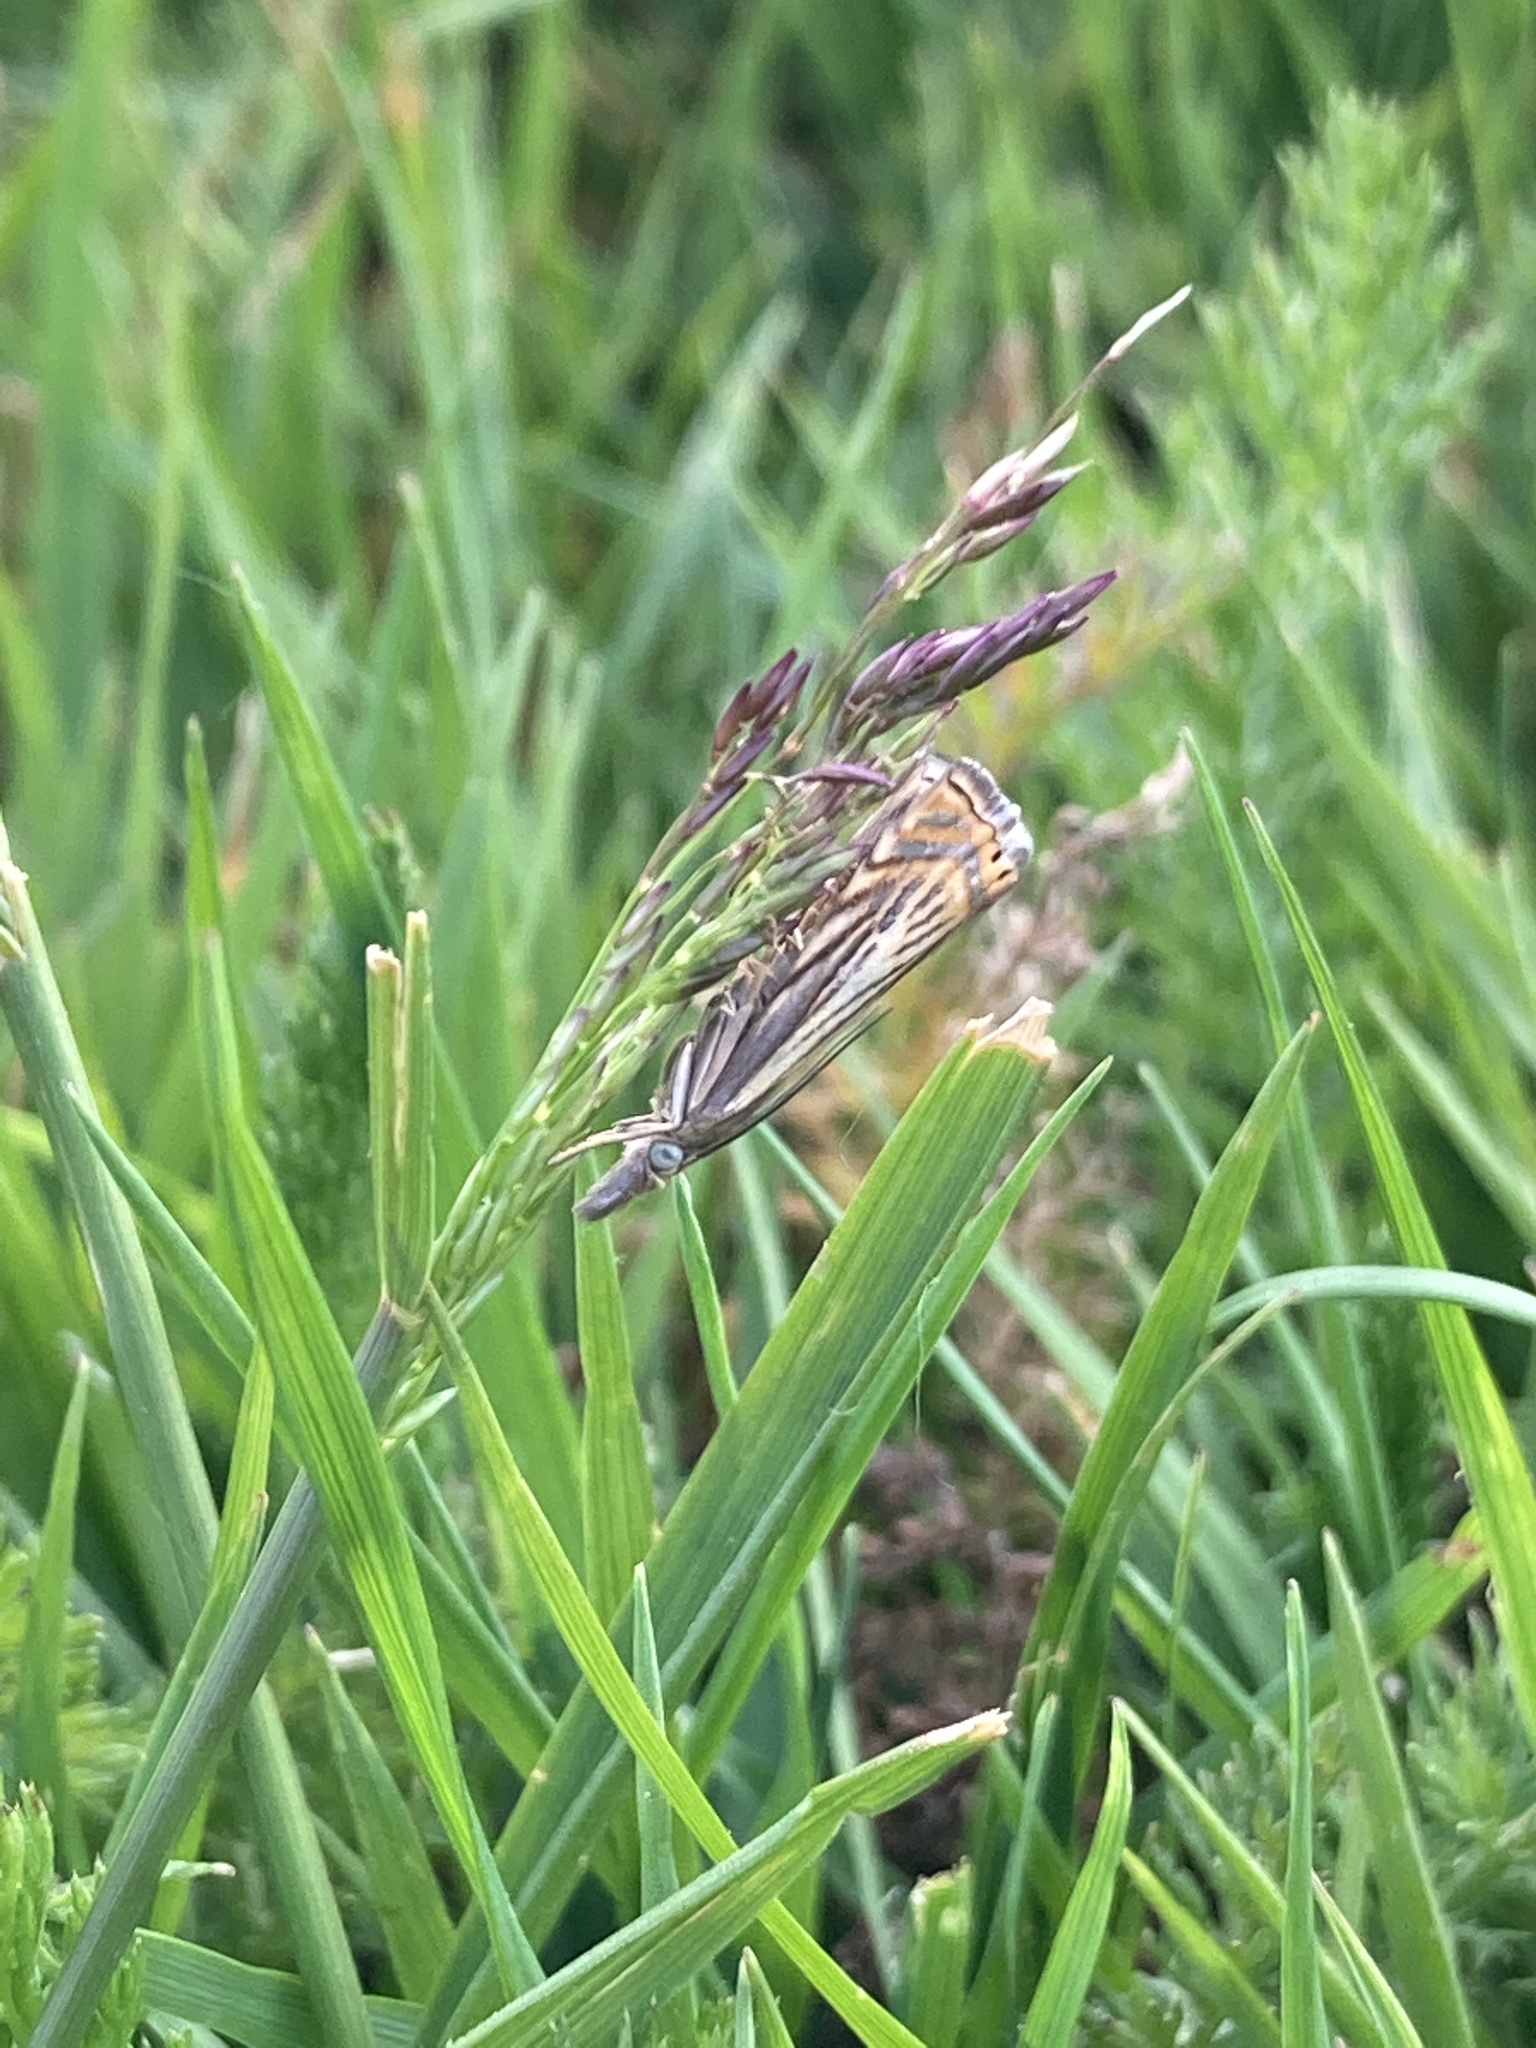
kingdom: Animalia
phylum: Arthropoda
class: Insecta
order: Lepidoptera
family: Crambidae
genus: Chrysoteuchia
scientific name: Chrysoteuchia topiarius
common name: Topiary grass-veneer
